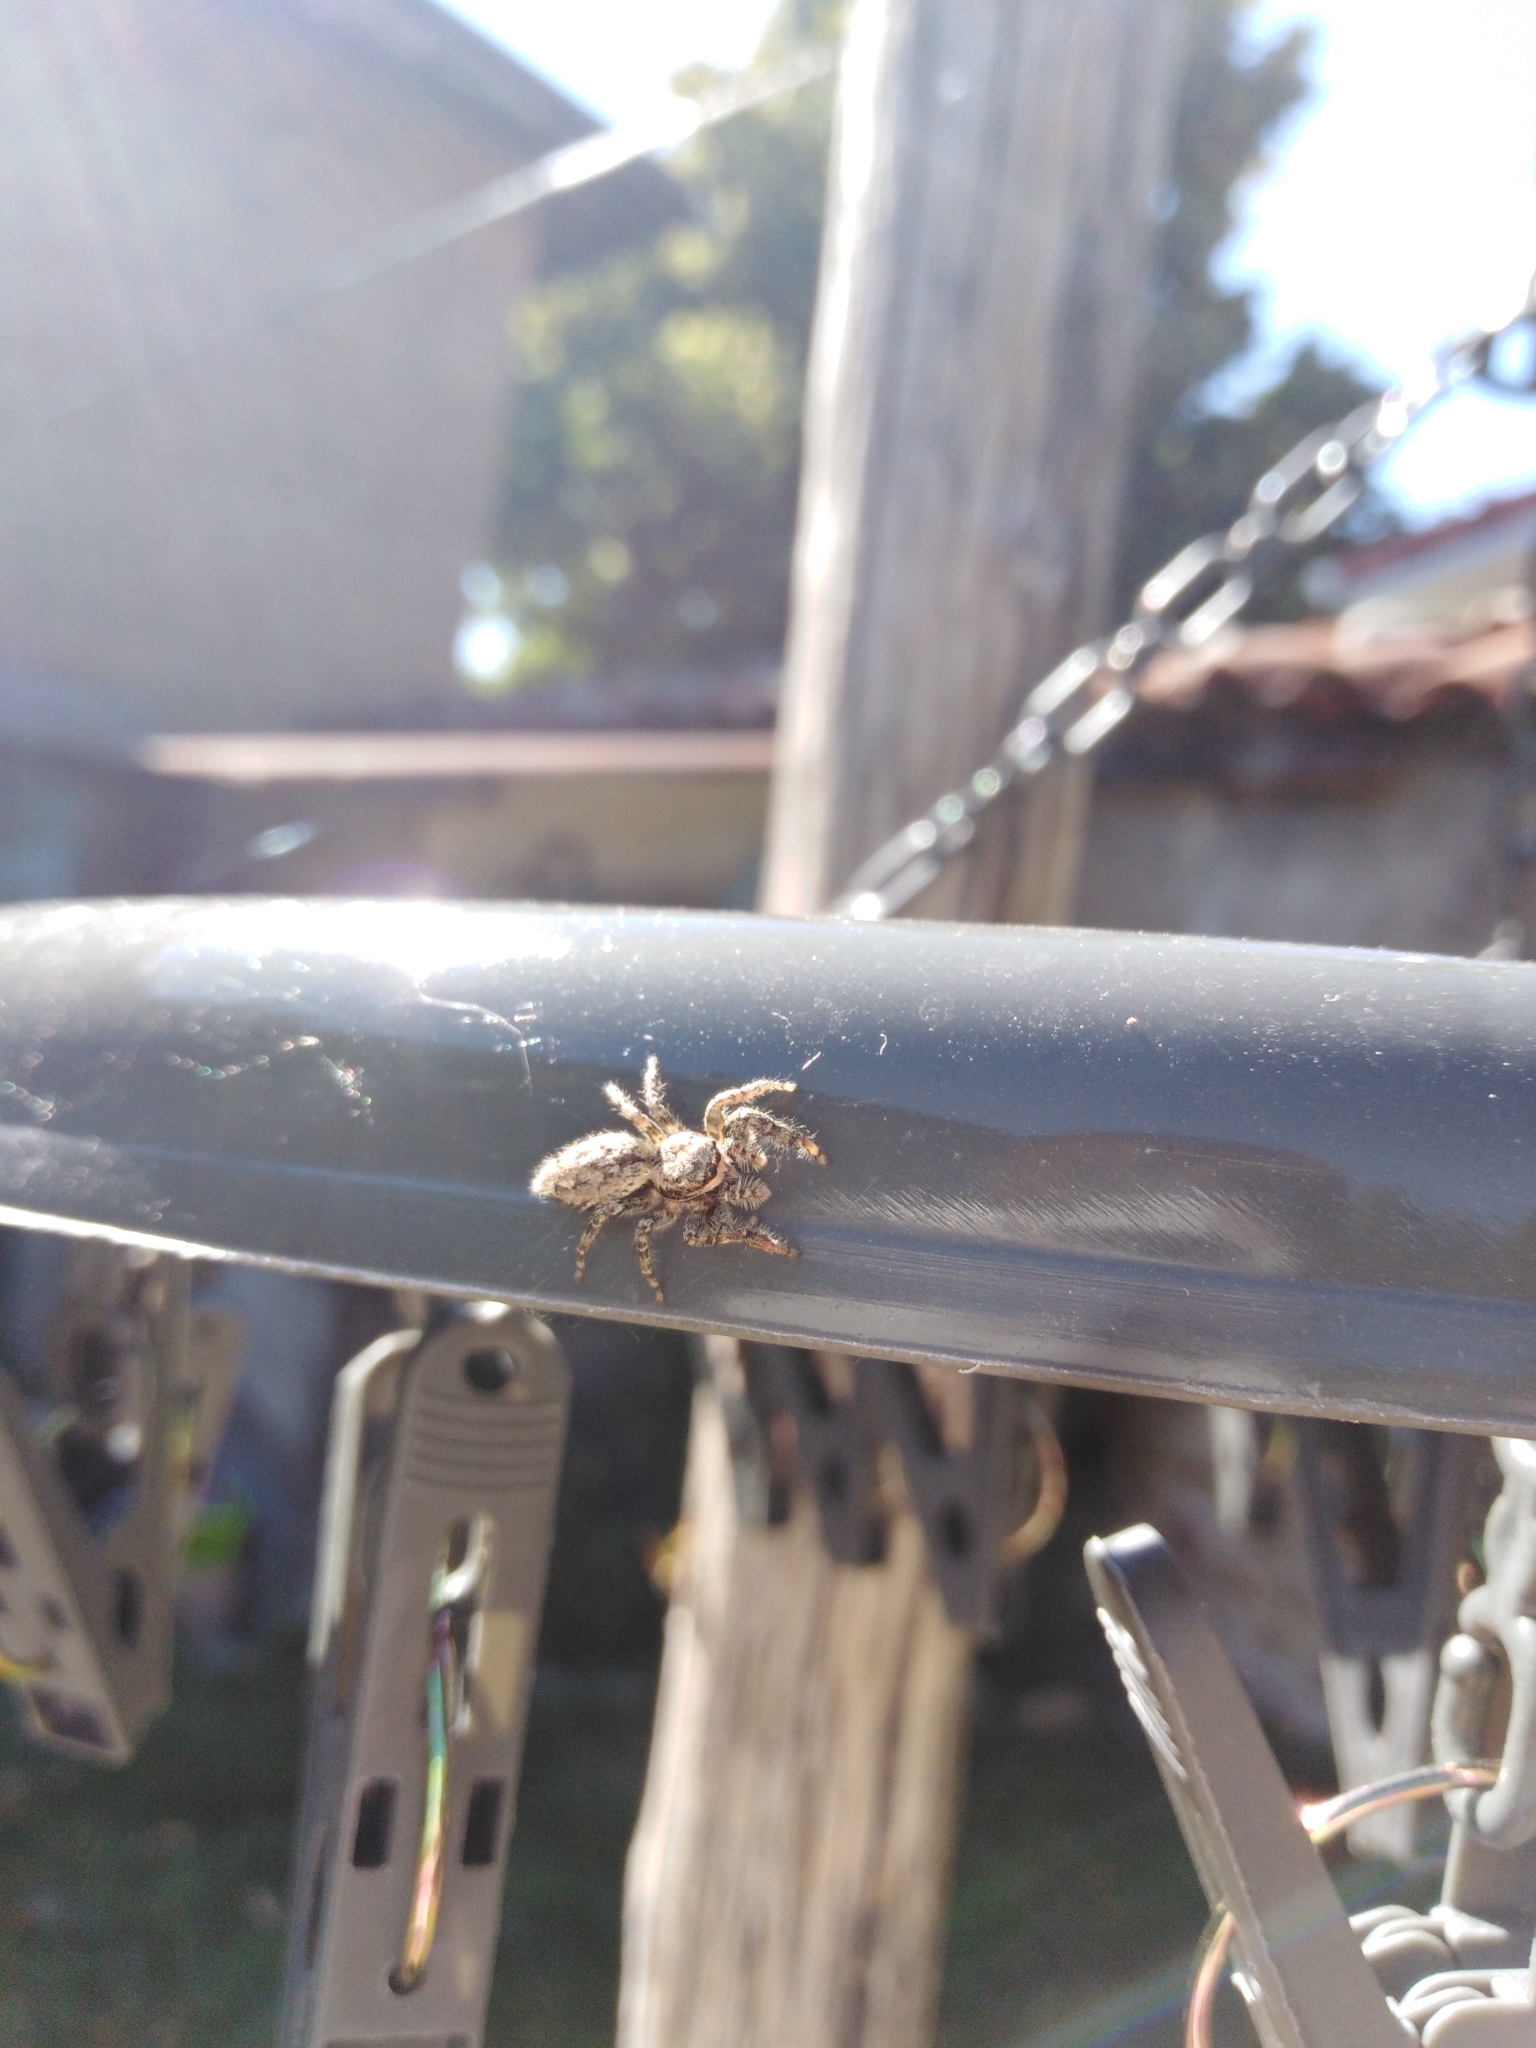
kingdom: Animalia
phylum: Arthropoda
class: Arachnida
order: Araneae
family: Salticidae
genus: Marpissa
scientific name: Marpissa muscosa
